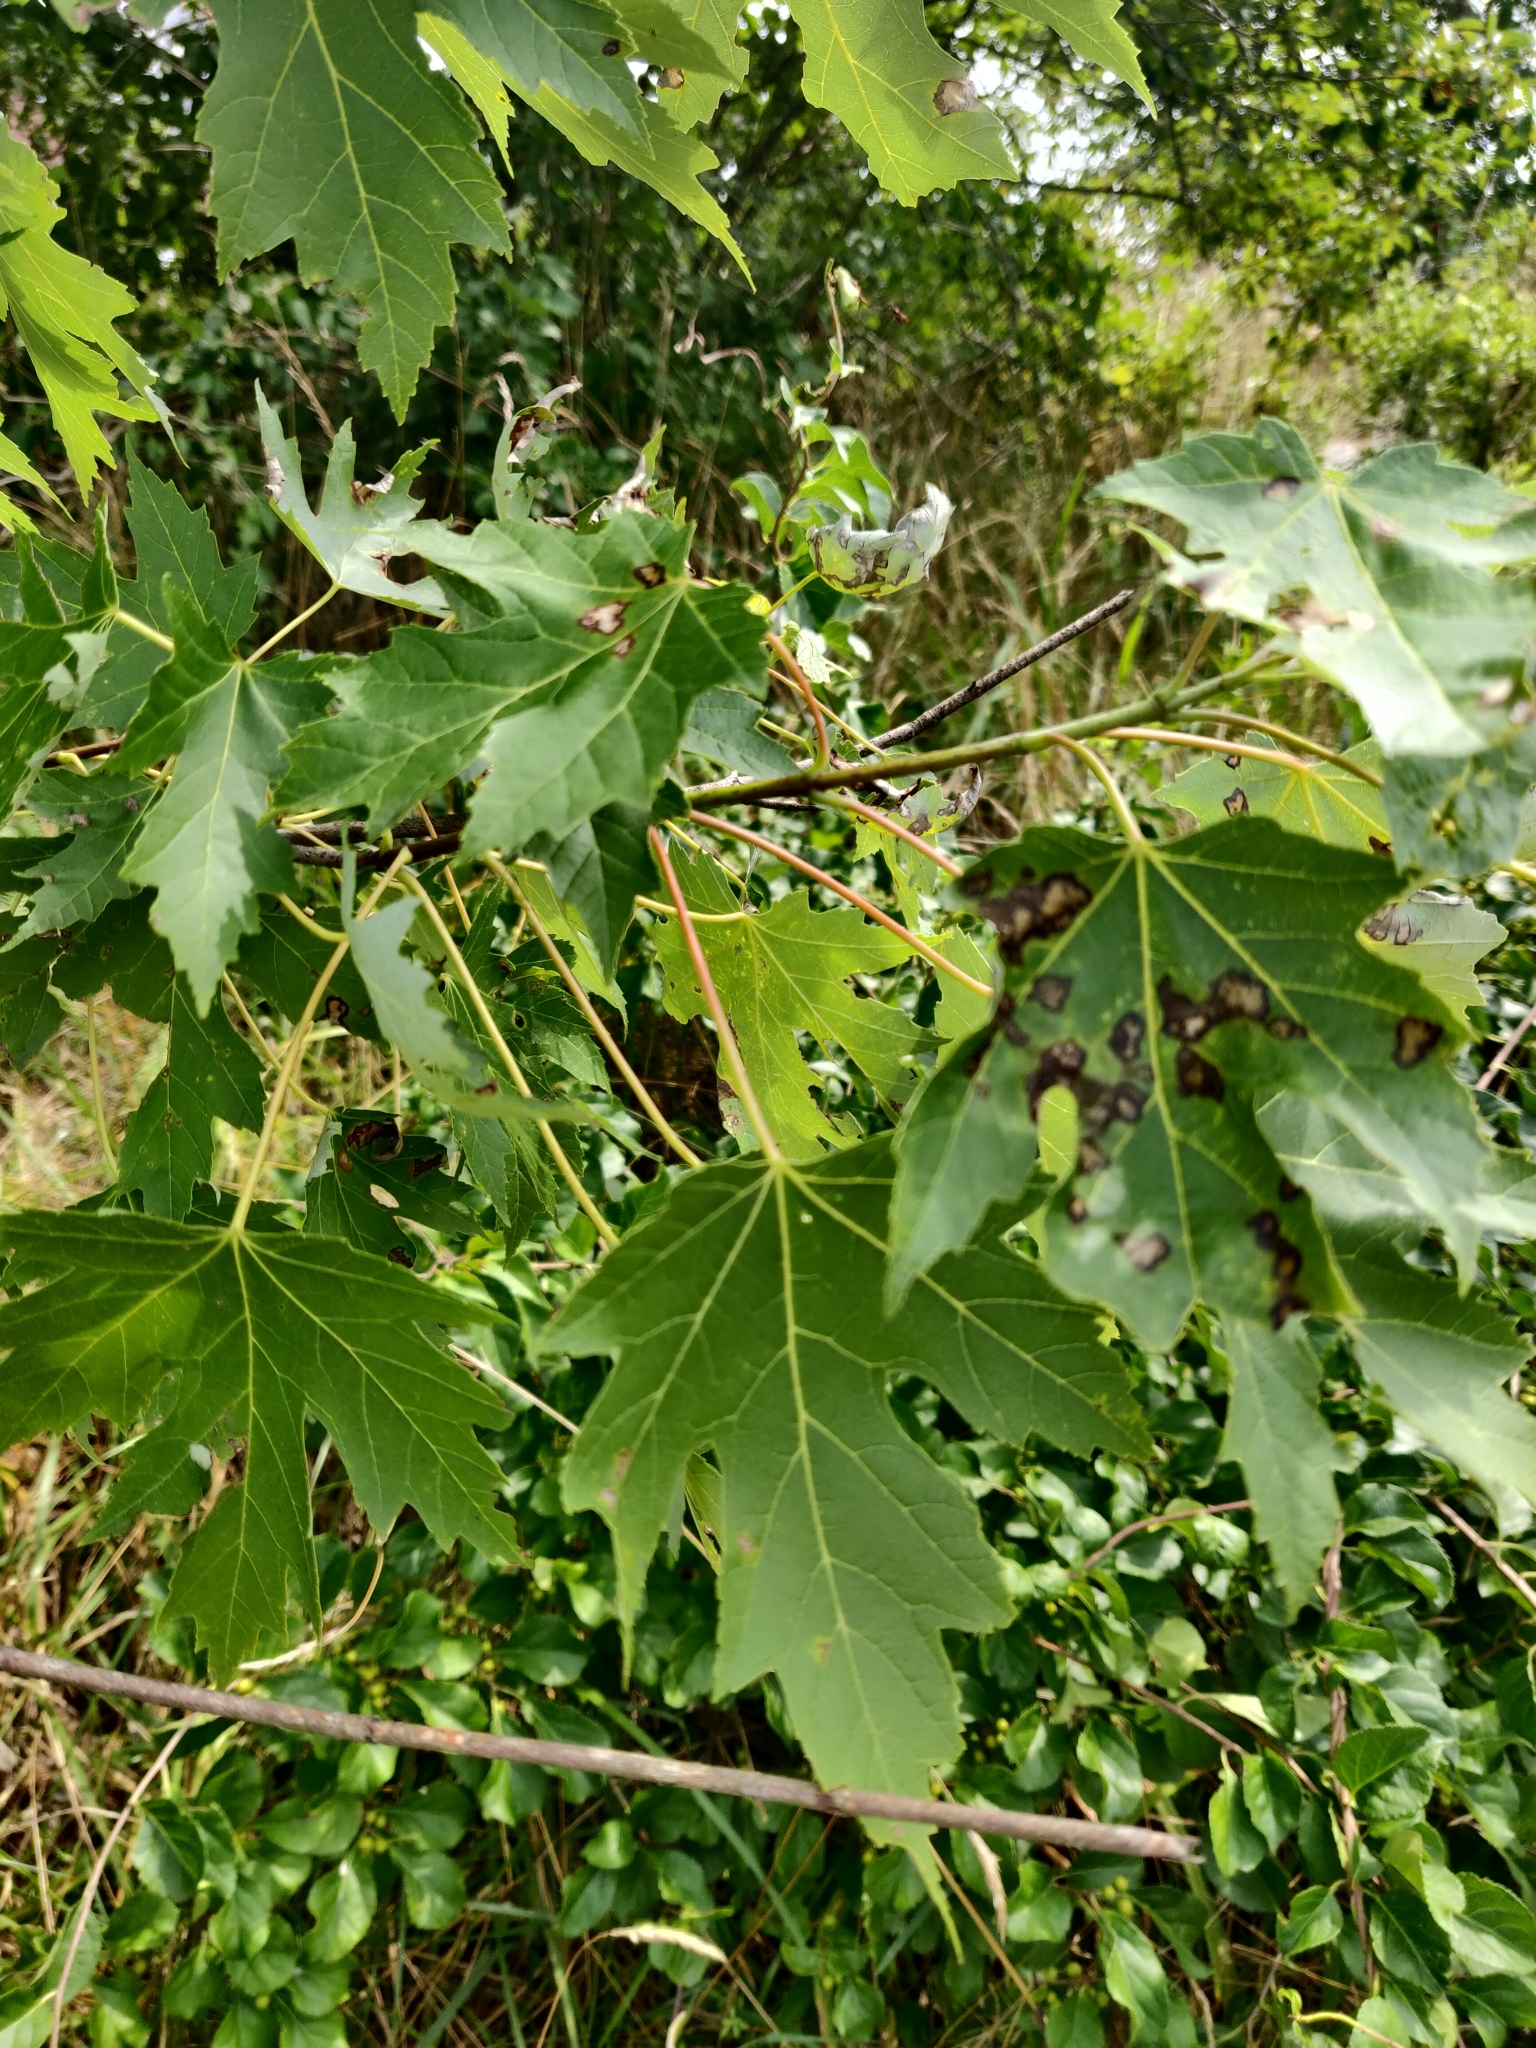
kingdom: Plantae
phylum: Tracheophyta
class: Magnoliopsida
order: Sapindales
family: Sapindaceae
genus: Acer
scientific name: Acer saccharinum
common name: Silver maple
